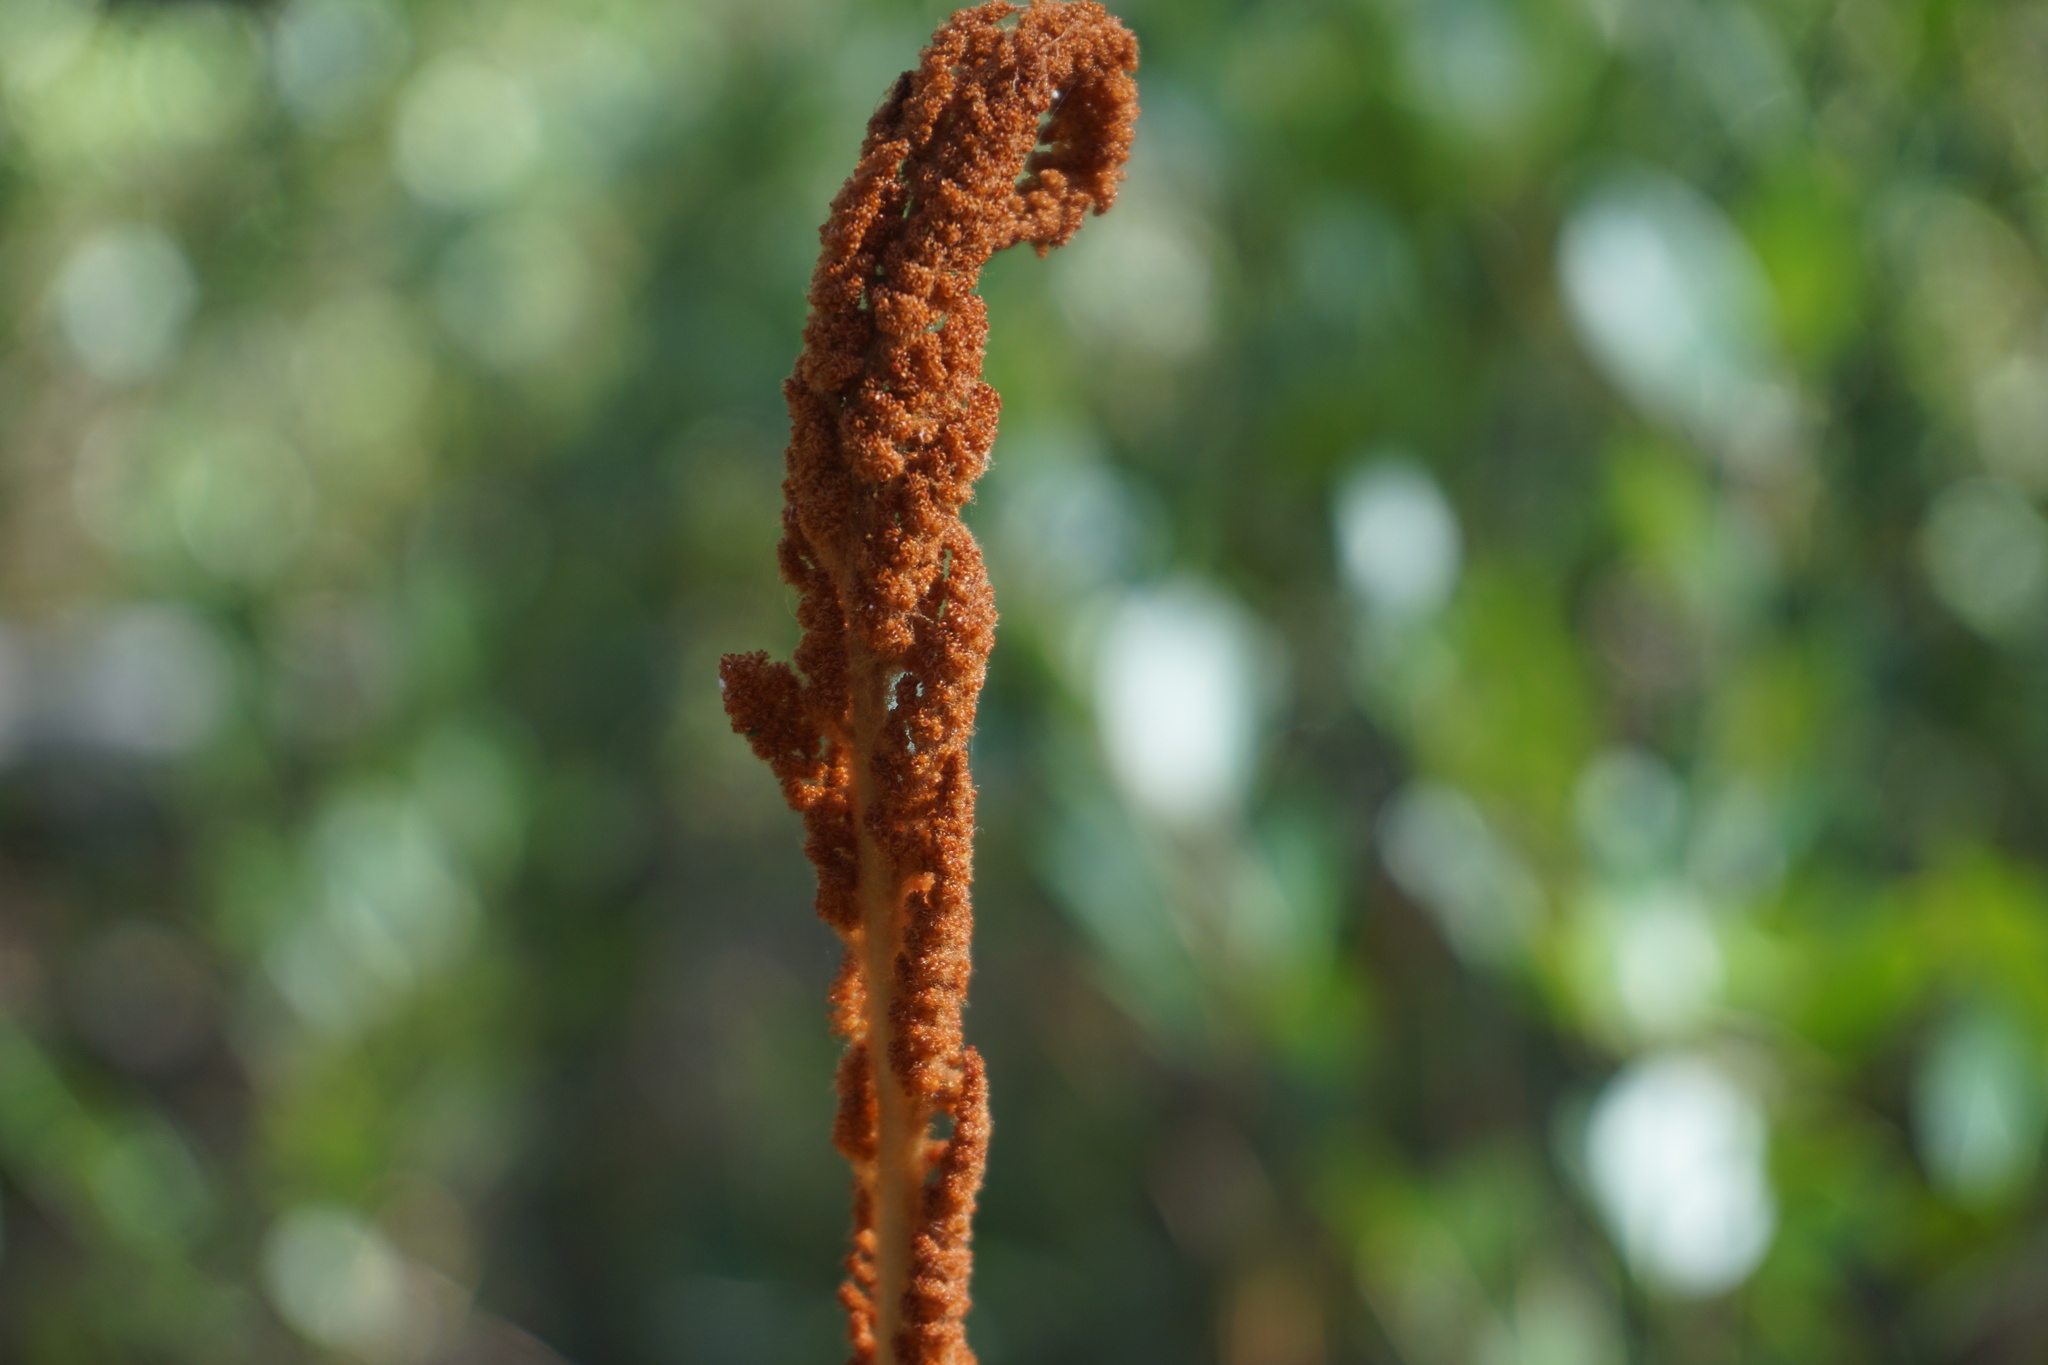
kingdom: Plantae
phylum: Tracheophyta
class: Polypodiopsida
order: Osmundales
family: Osmundaceae
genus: Osmundastrum
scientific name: Osmundastrum cinnamomeum
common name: Cinnamon fern
